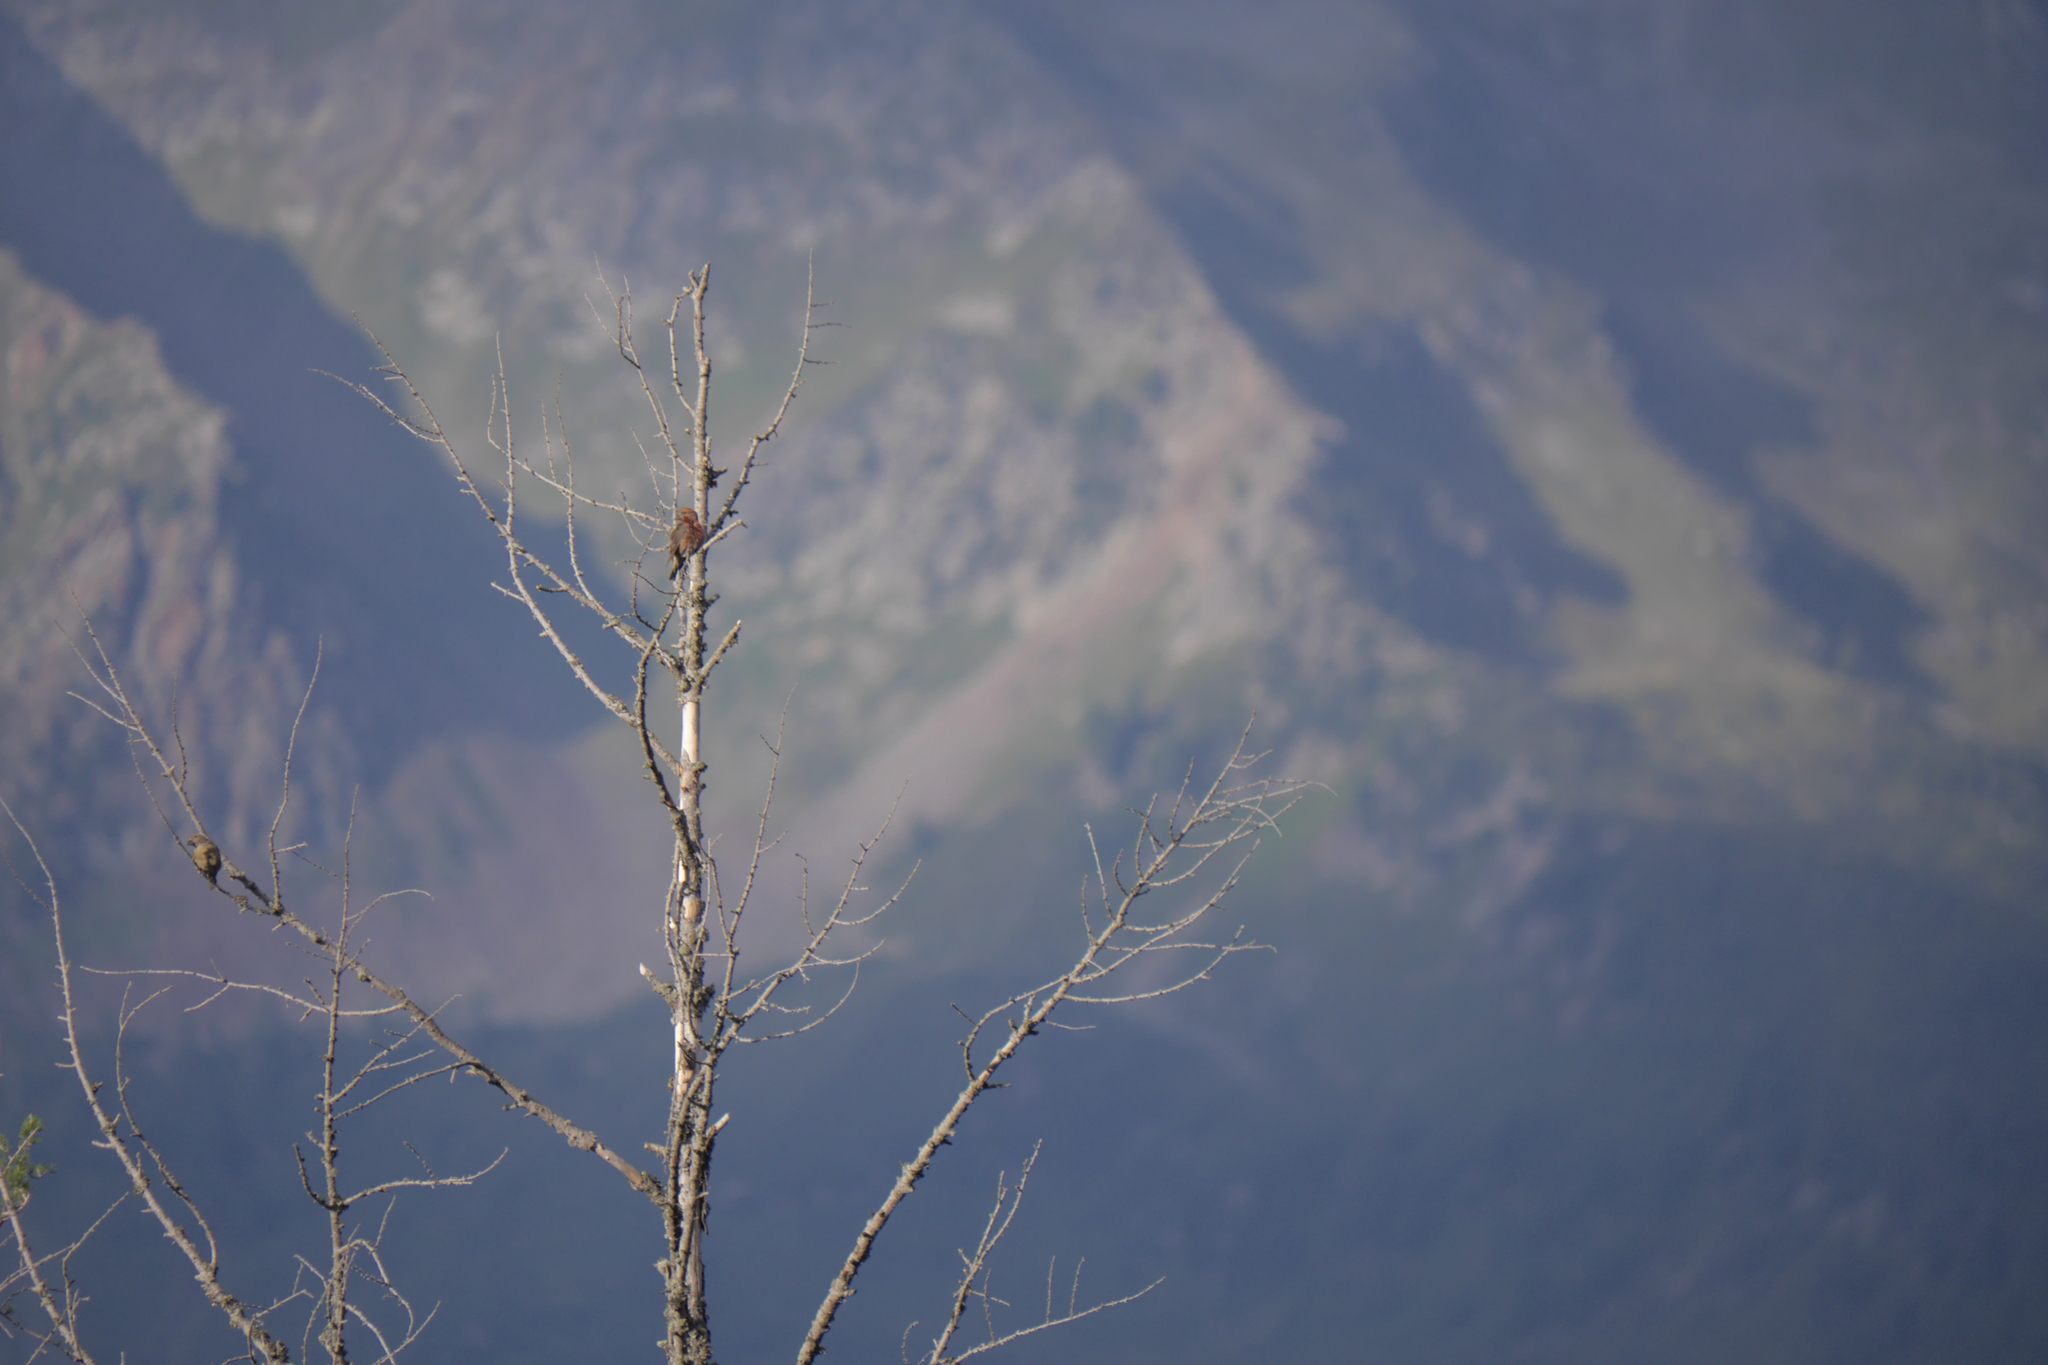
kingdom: Animalia
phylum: Chordata
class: Aves
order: Passeriformes
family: Fringillidae
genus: Loxia
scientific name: Loxia curvirostra
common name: Red crossbill
